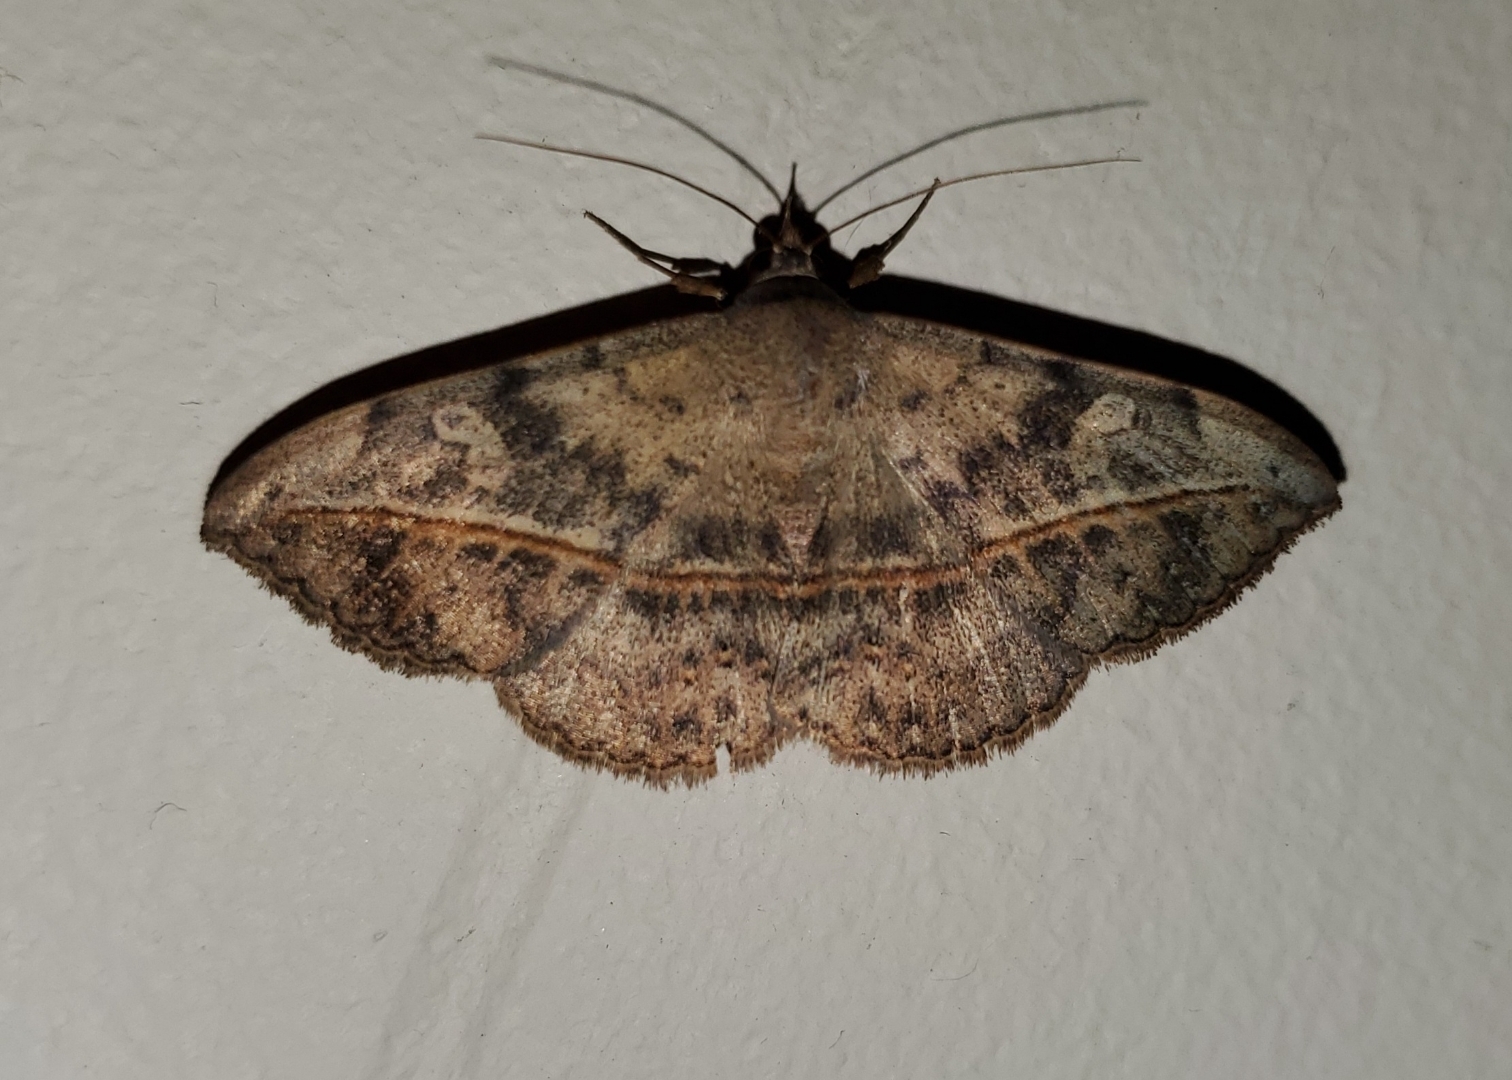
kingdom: Animalia
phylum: Arthropoda
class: Insecta
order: Lepidoptera
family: Erebidae
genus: Anticarsia
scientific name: Anticarsia gemmatalis
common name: Cutworm moth
